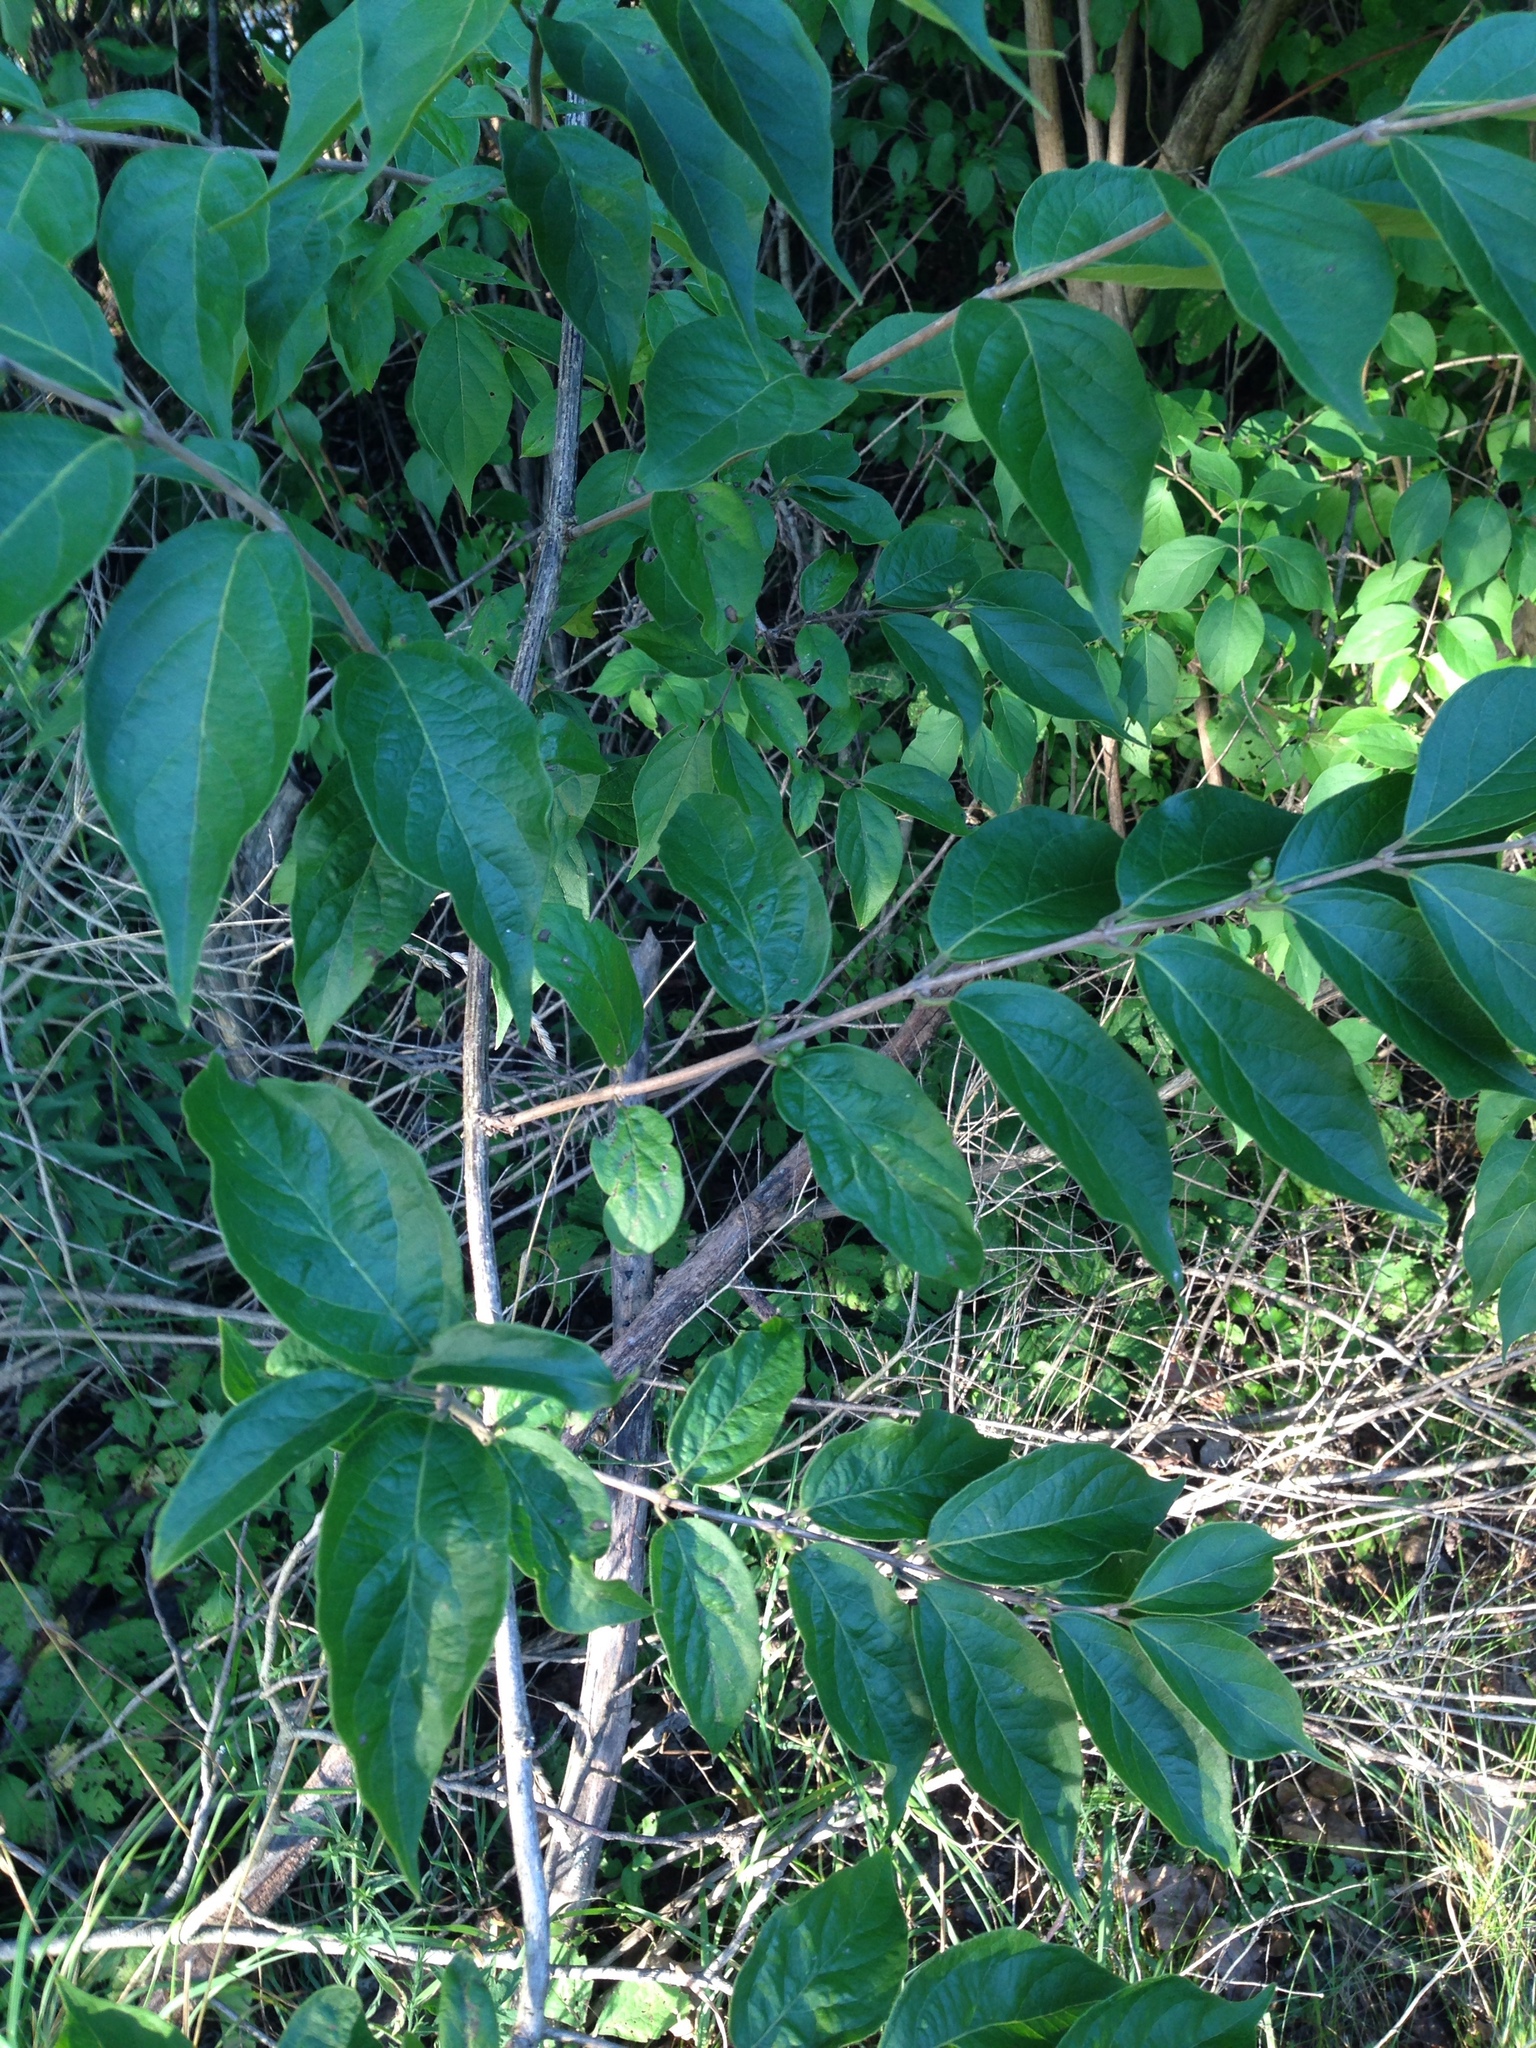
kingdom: Plantae
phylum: Tracheophyta
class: Magnoliopsida
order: Dipsacales
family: Caprifoliaceae
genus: Lonicera
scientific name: Lonicera maackii
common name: Amur honeysuckle
